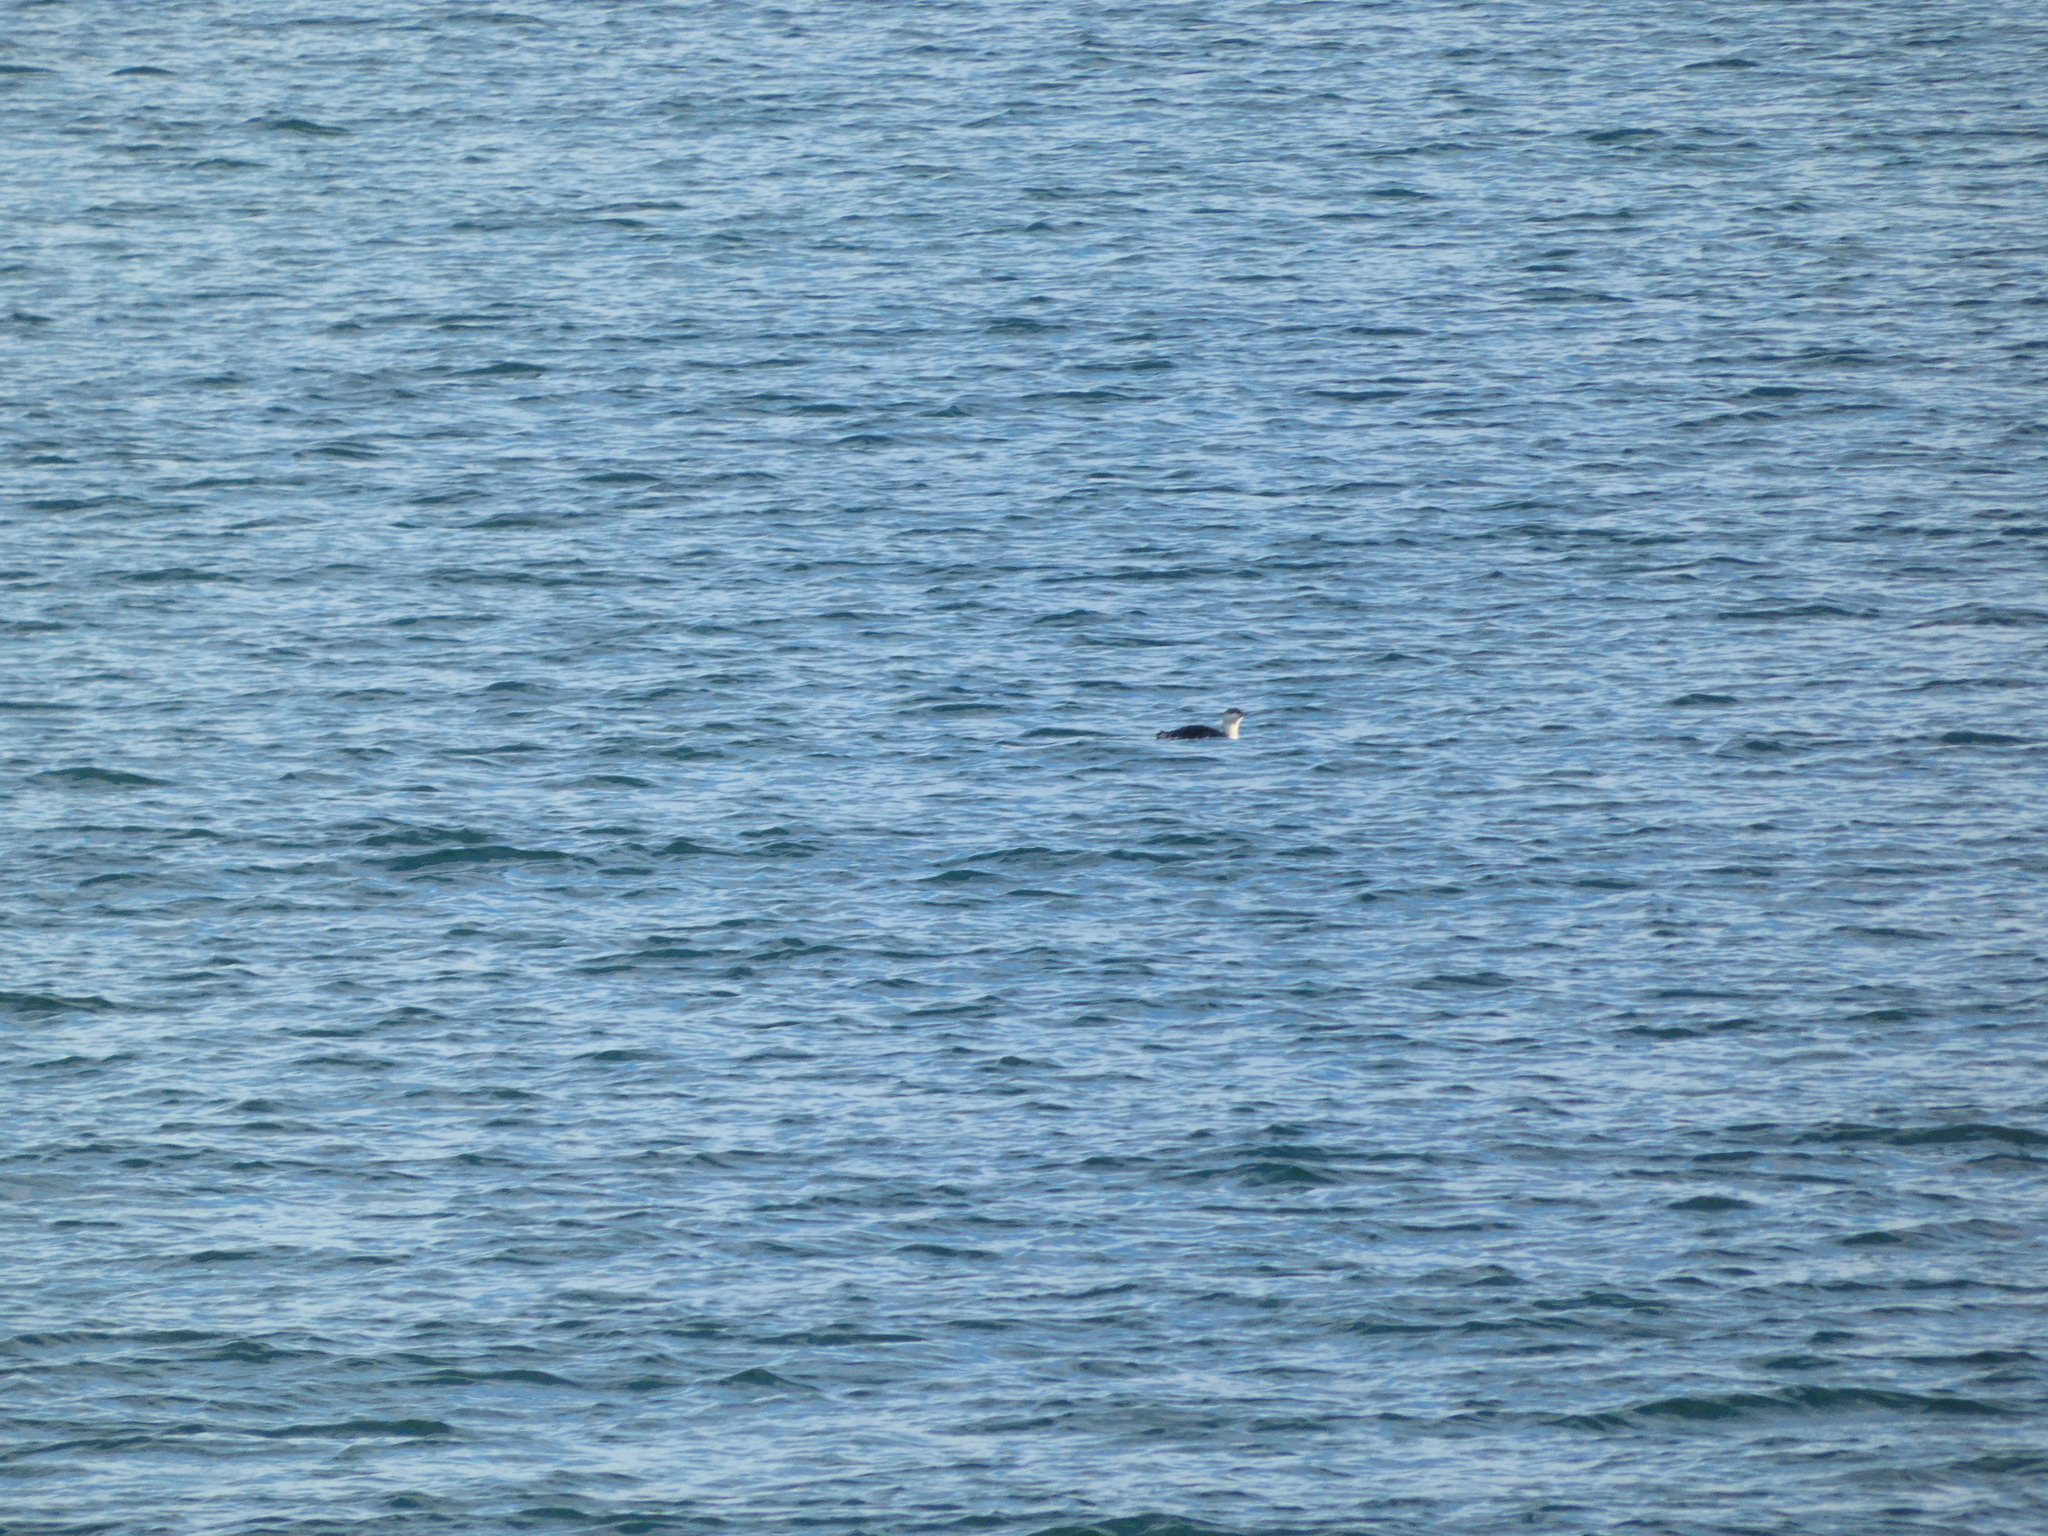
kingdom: Animalia
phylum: Chordata
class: Aves
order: Gaviiformes
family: Gaviidae
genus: Gavia
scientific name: Gavia stellata
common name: Red-throated loon
